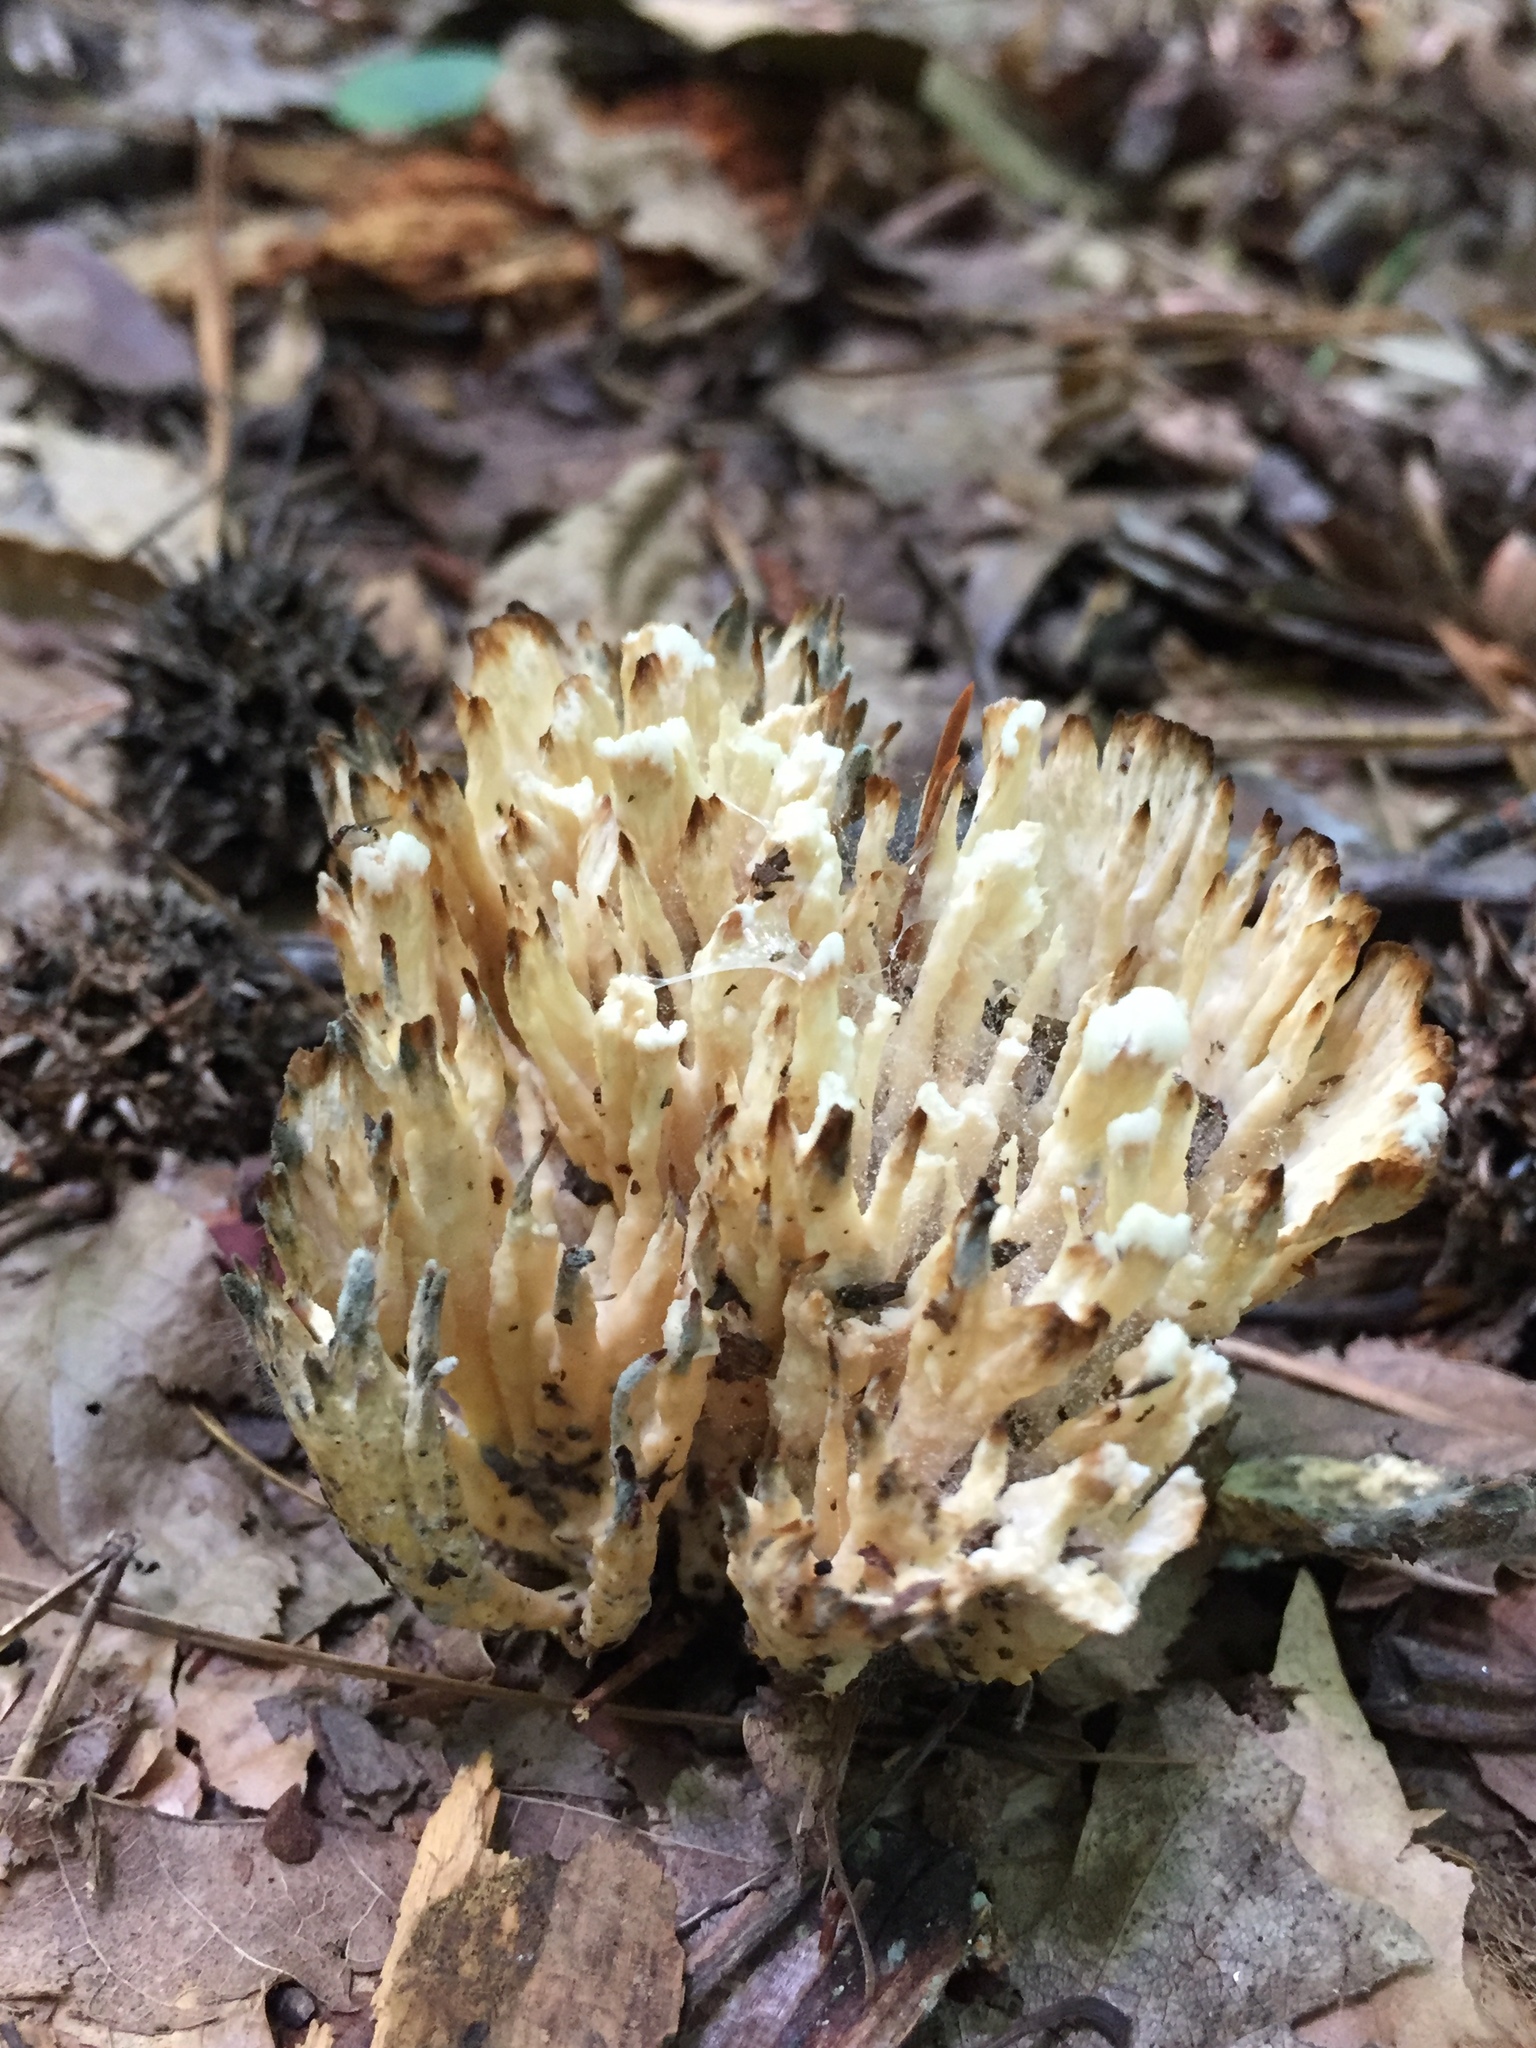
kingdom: Fungi
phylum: Basidiomycota
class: Agaricomycetes
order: Sebacinales
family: Sebacinaceae
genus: Sebacina
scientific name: Sebacina schweinitzii
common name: Jellied false coral fungus
